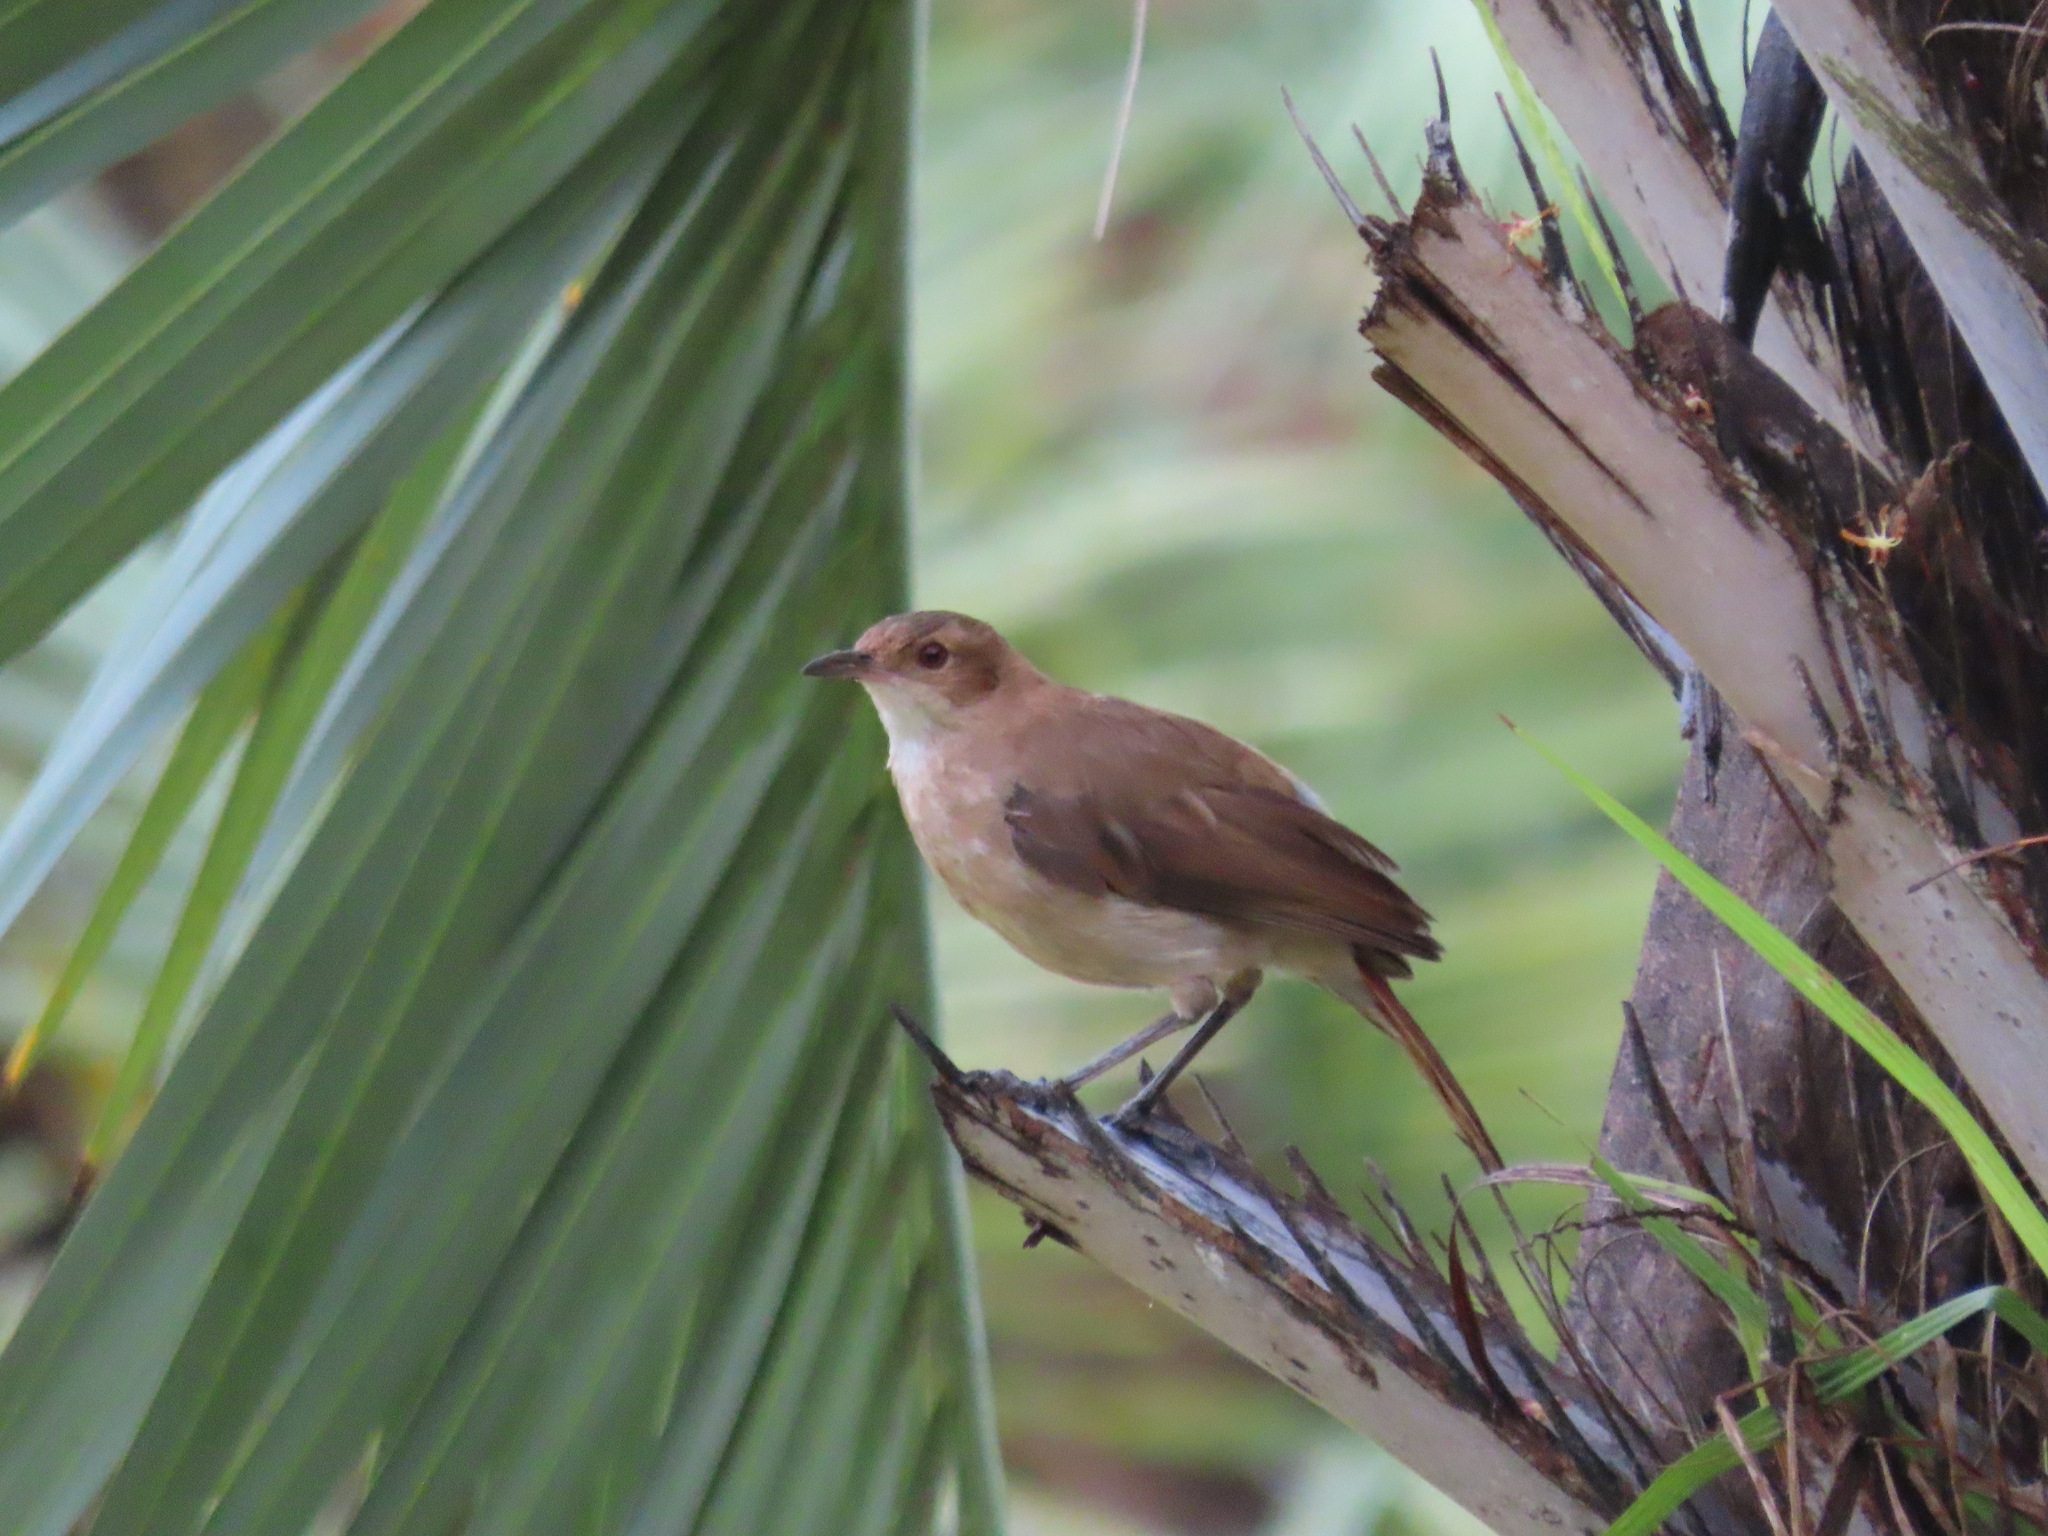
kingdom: Animalia
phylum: Chordata
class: Aves
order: Passeriformes
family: Furnariidae
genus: Furnarius
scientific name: Furnarius rufus
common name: Rufous hornero
